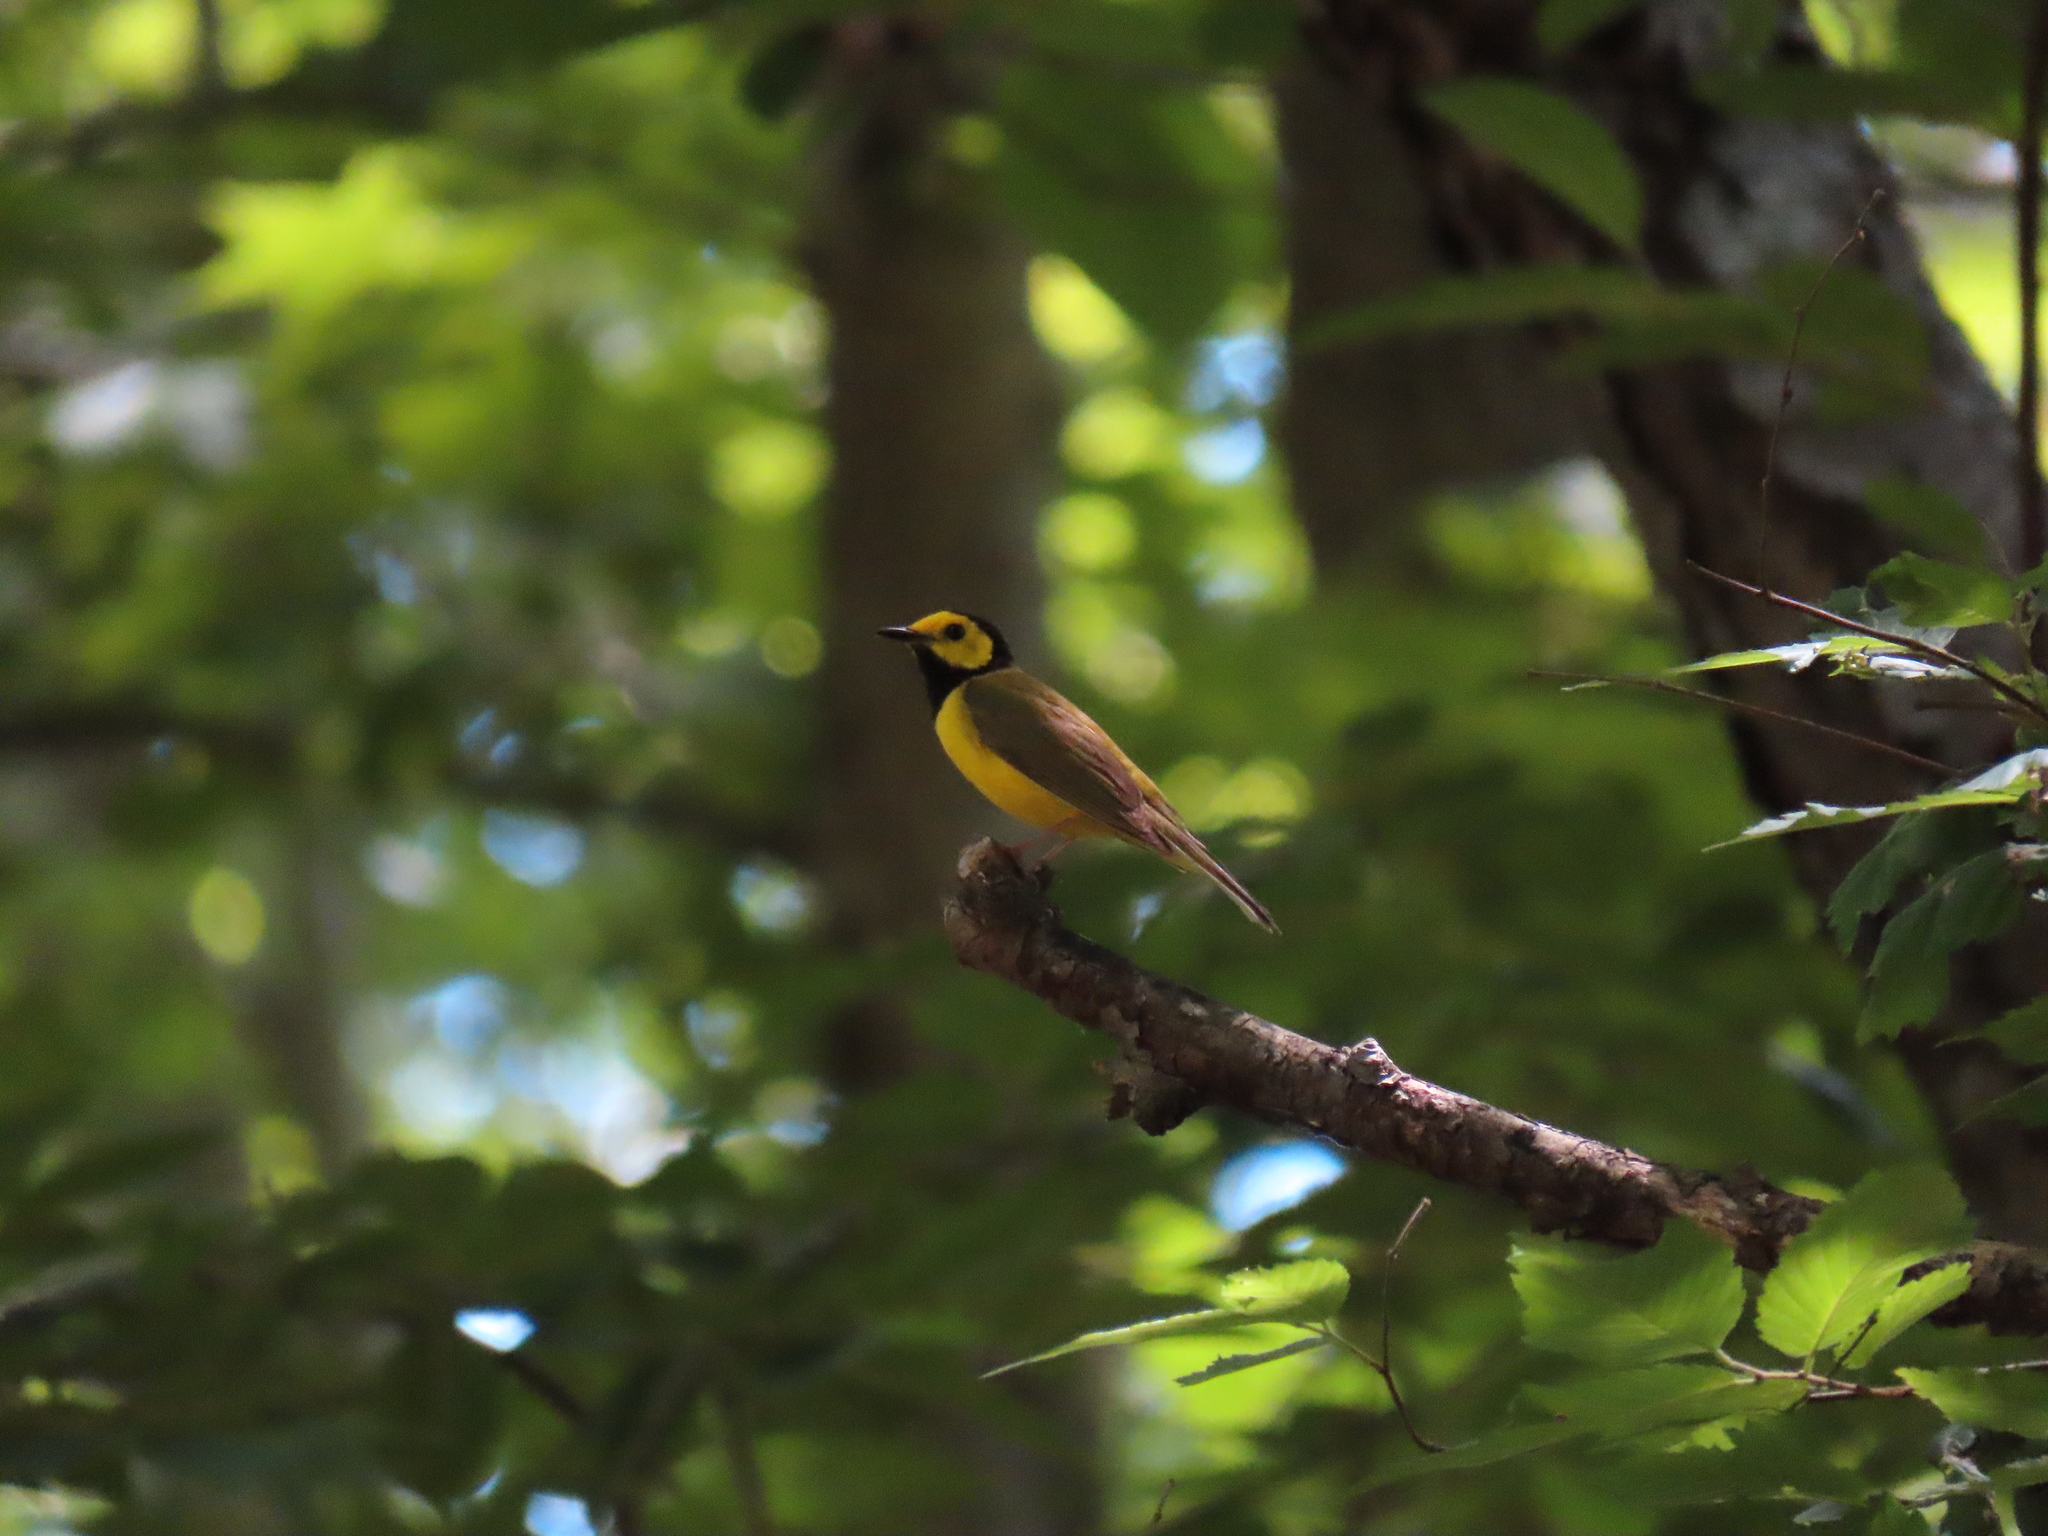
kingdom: Animalia
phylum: Chordata
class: Aves
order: Passeriformes
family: Parulidae
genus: Setophaga
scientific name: Setophaga citrina
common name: Hooded warbler
